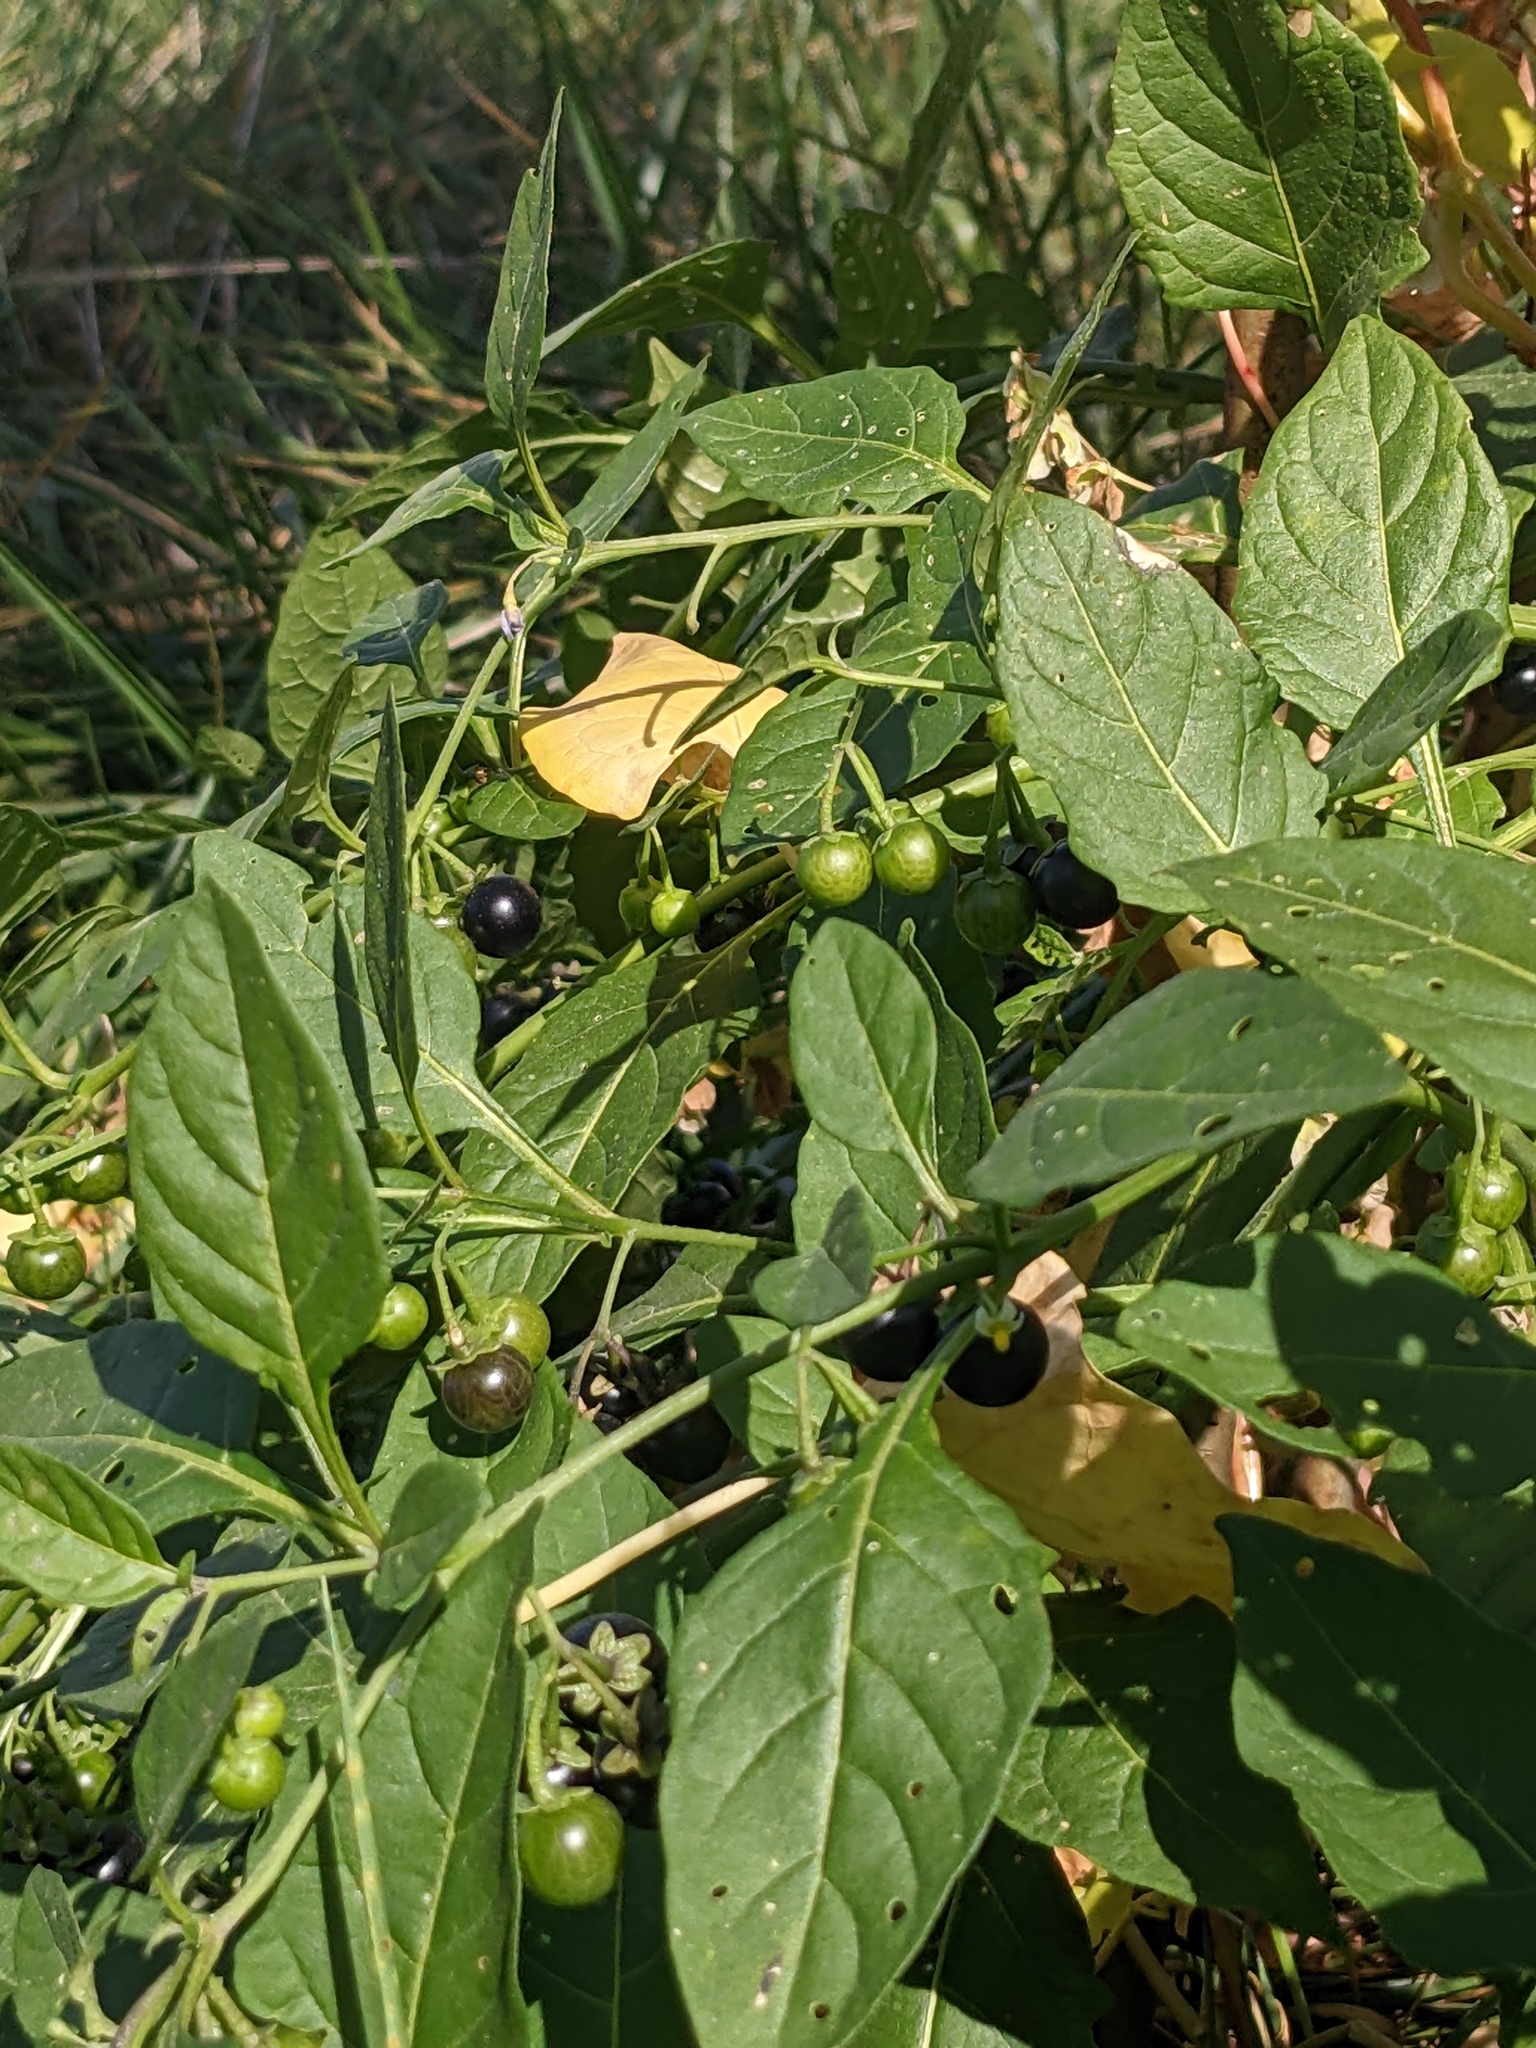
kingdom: Plantae
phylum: Tracheophyta
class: Magnoliopsida
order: Solanales
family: Solanaceae
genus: Solanum
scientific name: Solanum emulans
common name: Eastern black nightshade
